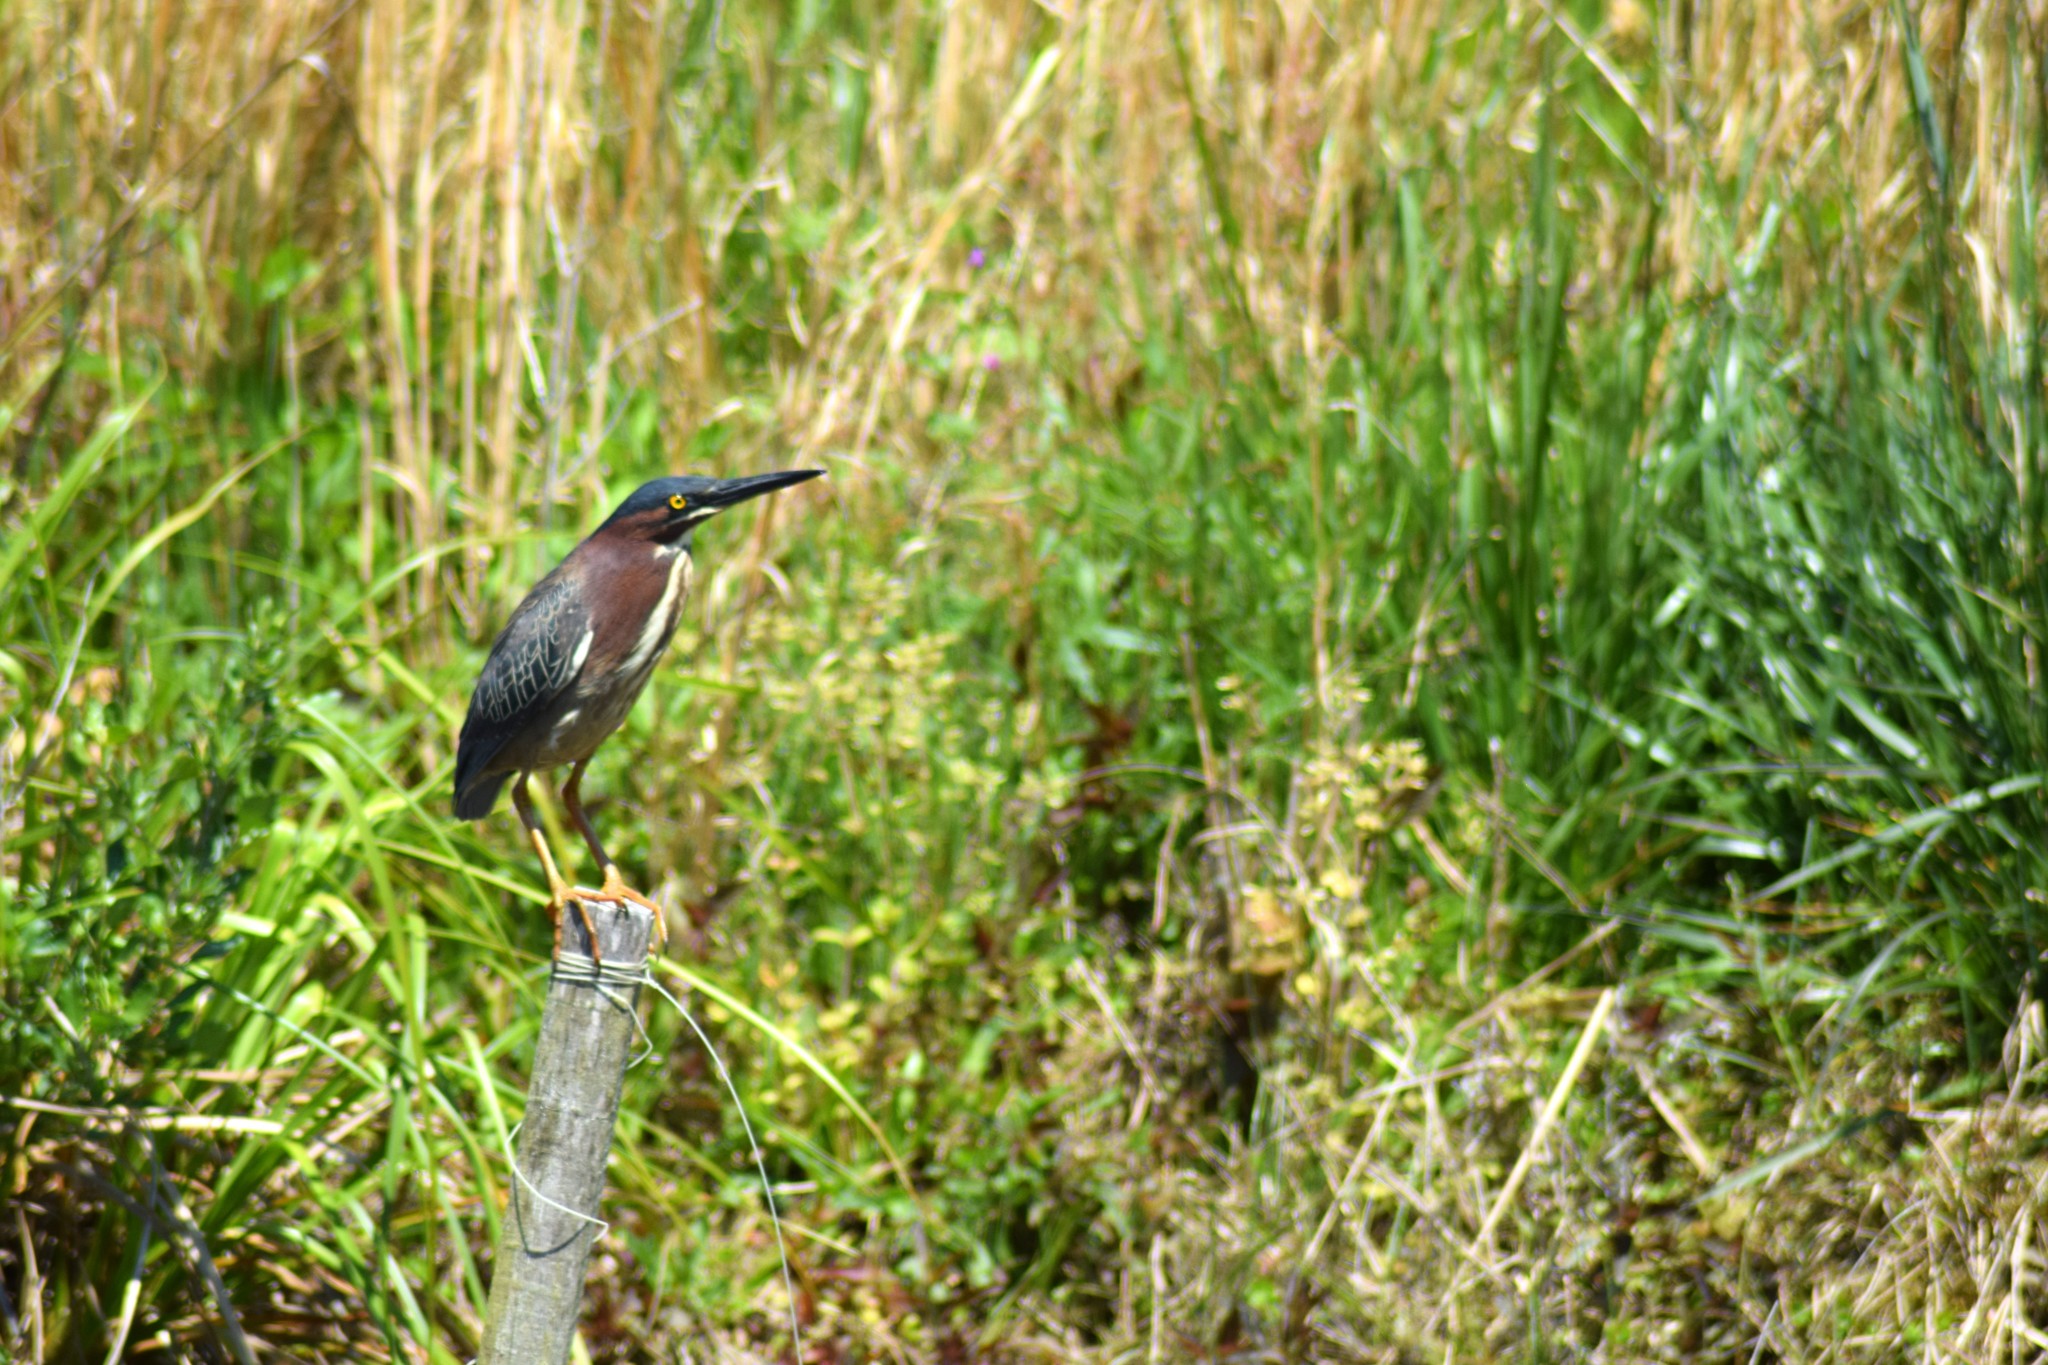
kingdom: Animalia
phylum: Chordata
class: Aves
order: Pelecaniformes
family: Ardeidae
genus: Butorides
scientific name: Butorides virescens
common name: Green heron
